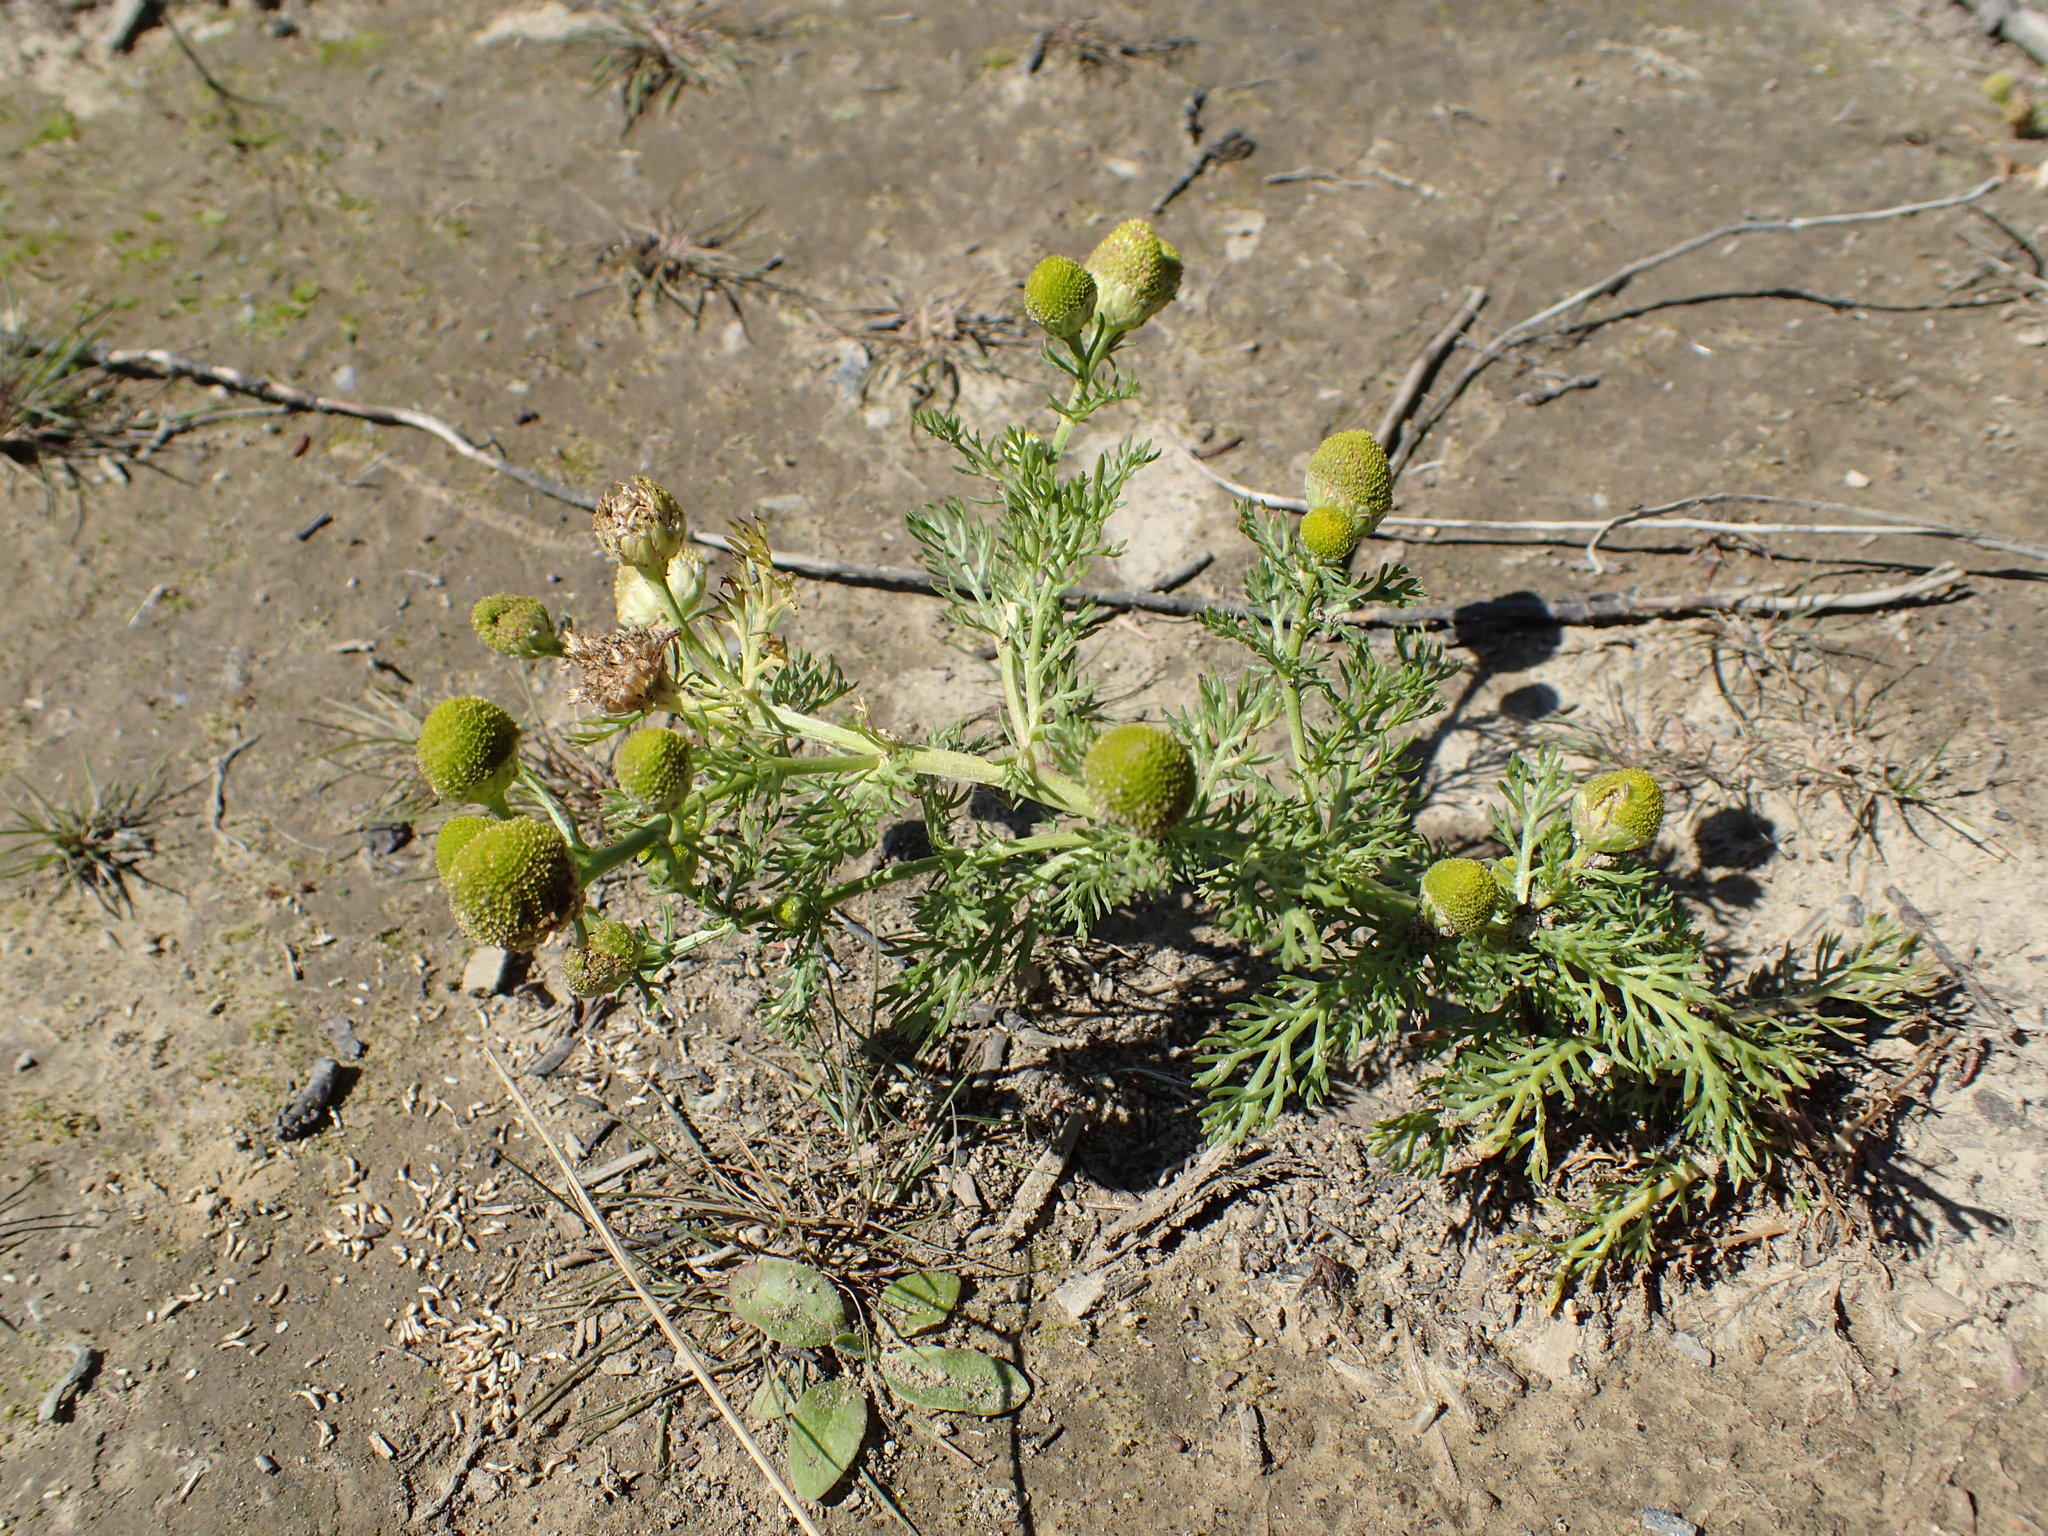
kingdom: Plantae
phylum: Tracheophyta
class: Magnoliopsida
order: Asterales
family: Asteraceae
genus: Matricaria
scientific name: Matricaria discoidea
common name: Disc mayweed
